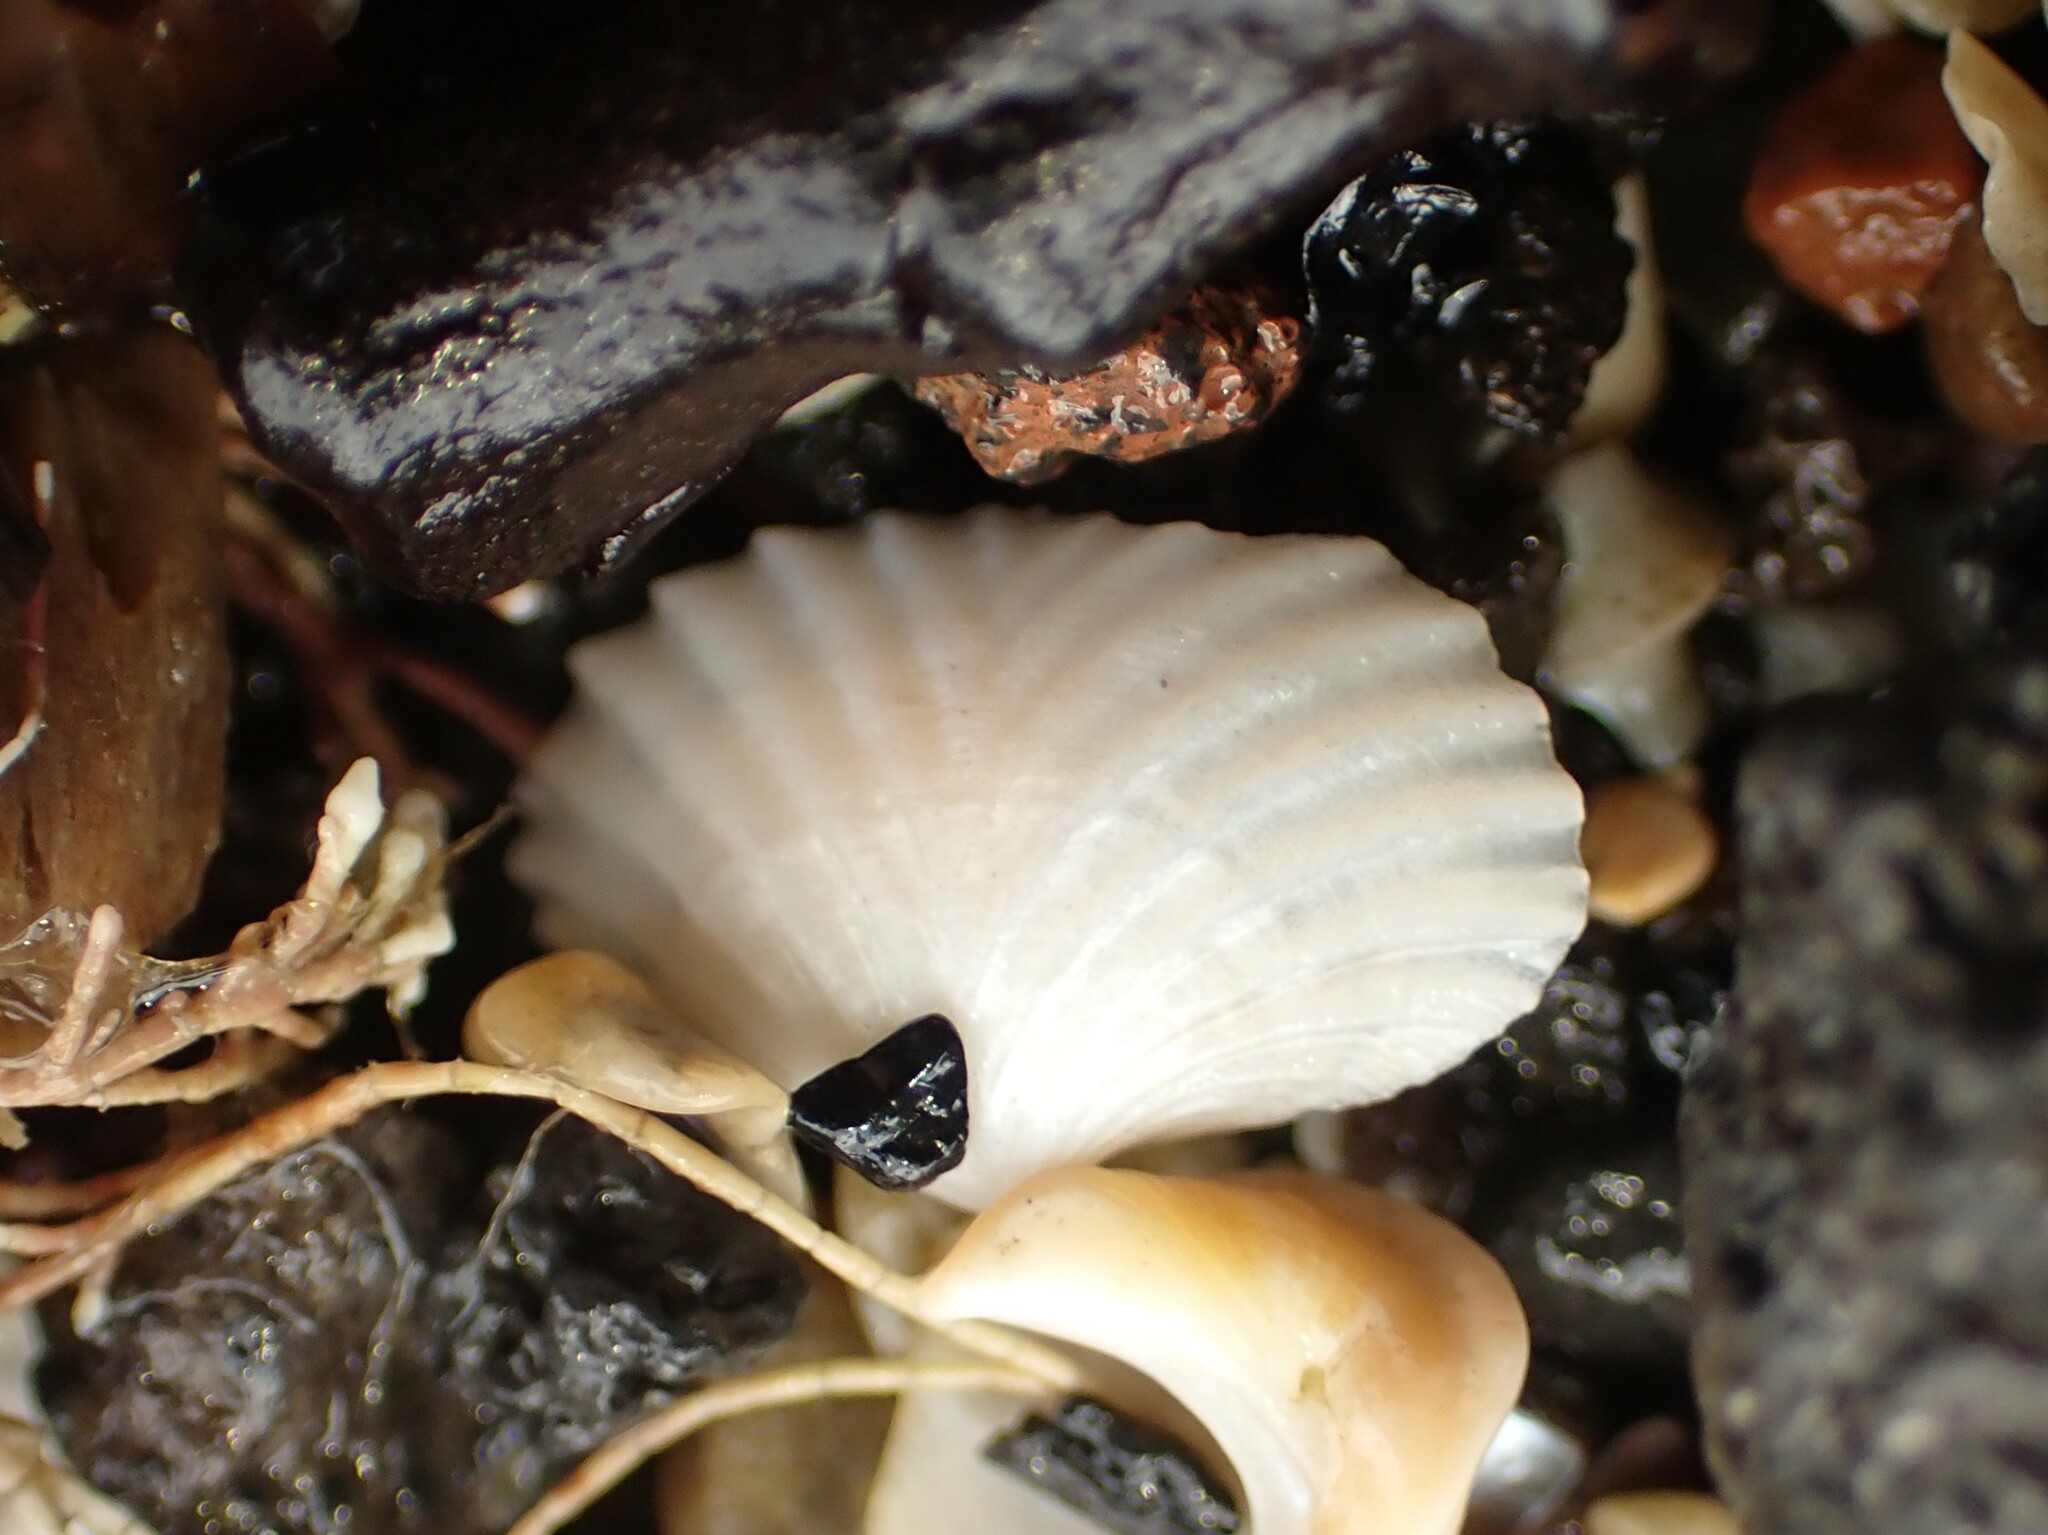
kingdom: Animalia
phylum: Mollusca
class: Bivalvia
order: Galeommatida
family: Lasaeidae
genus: Myllita
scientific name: Myllita stowei
